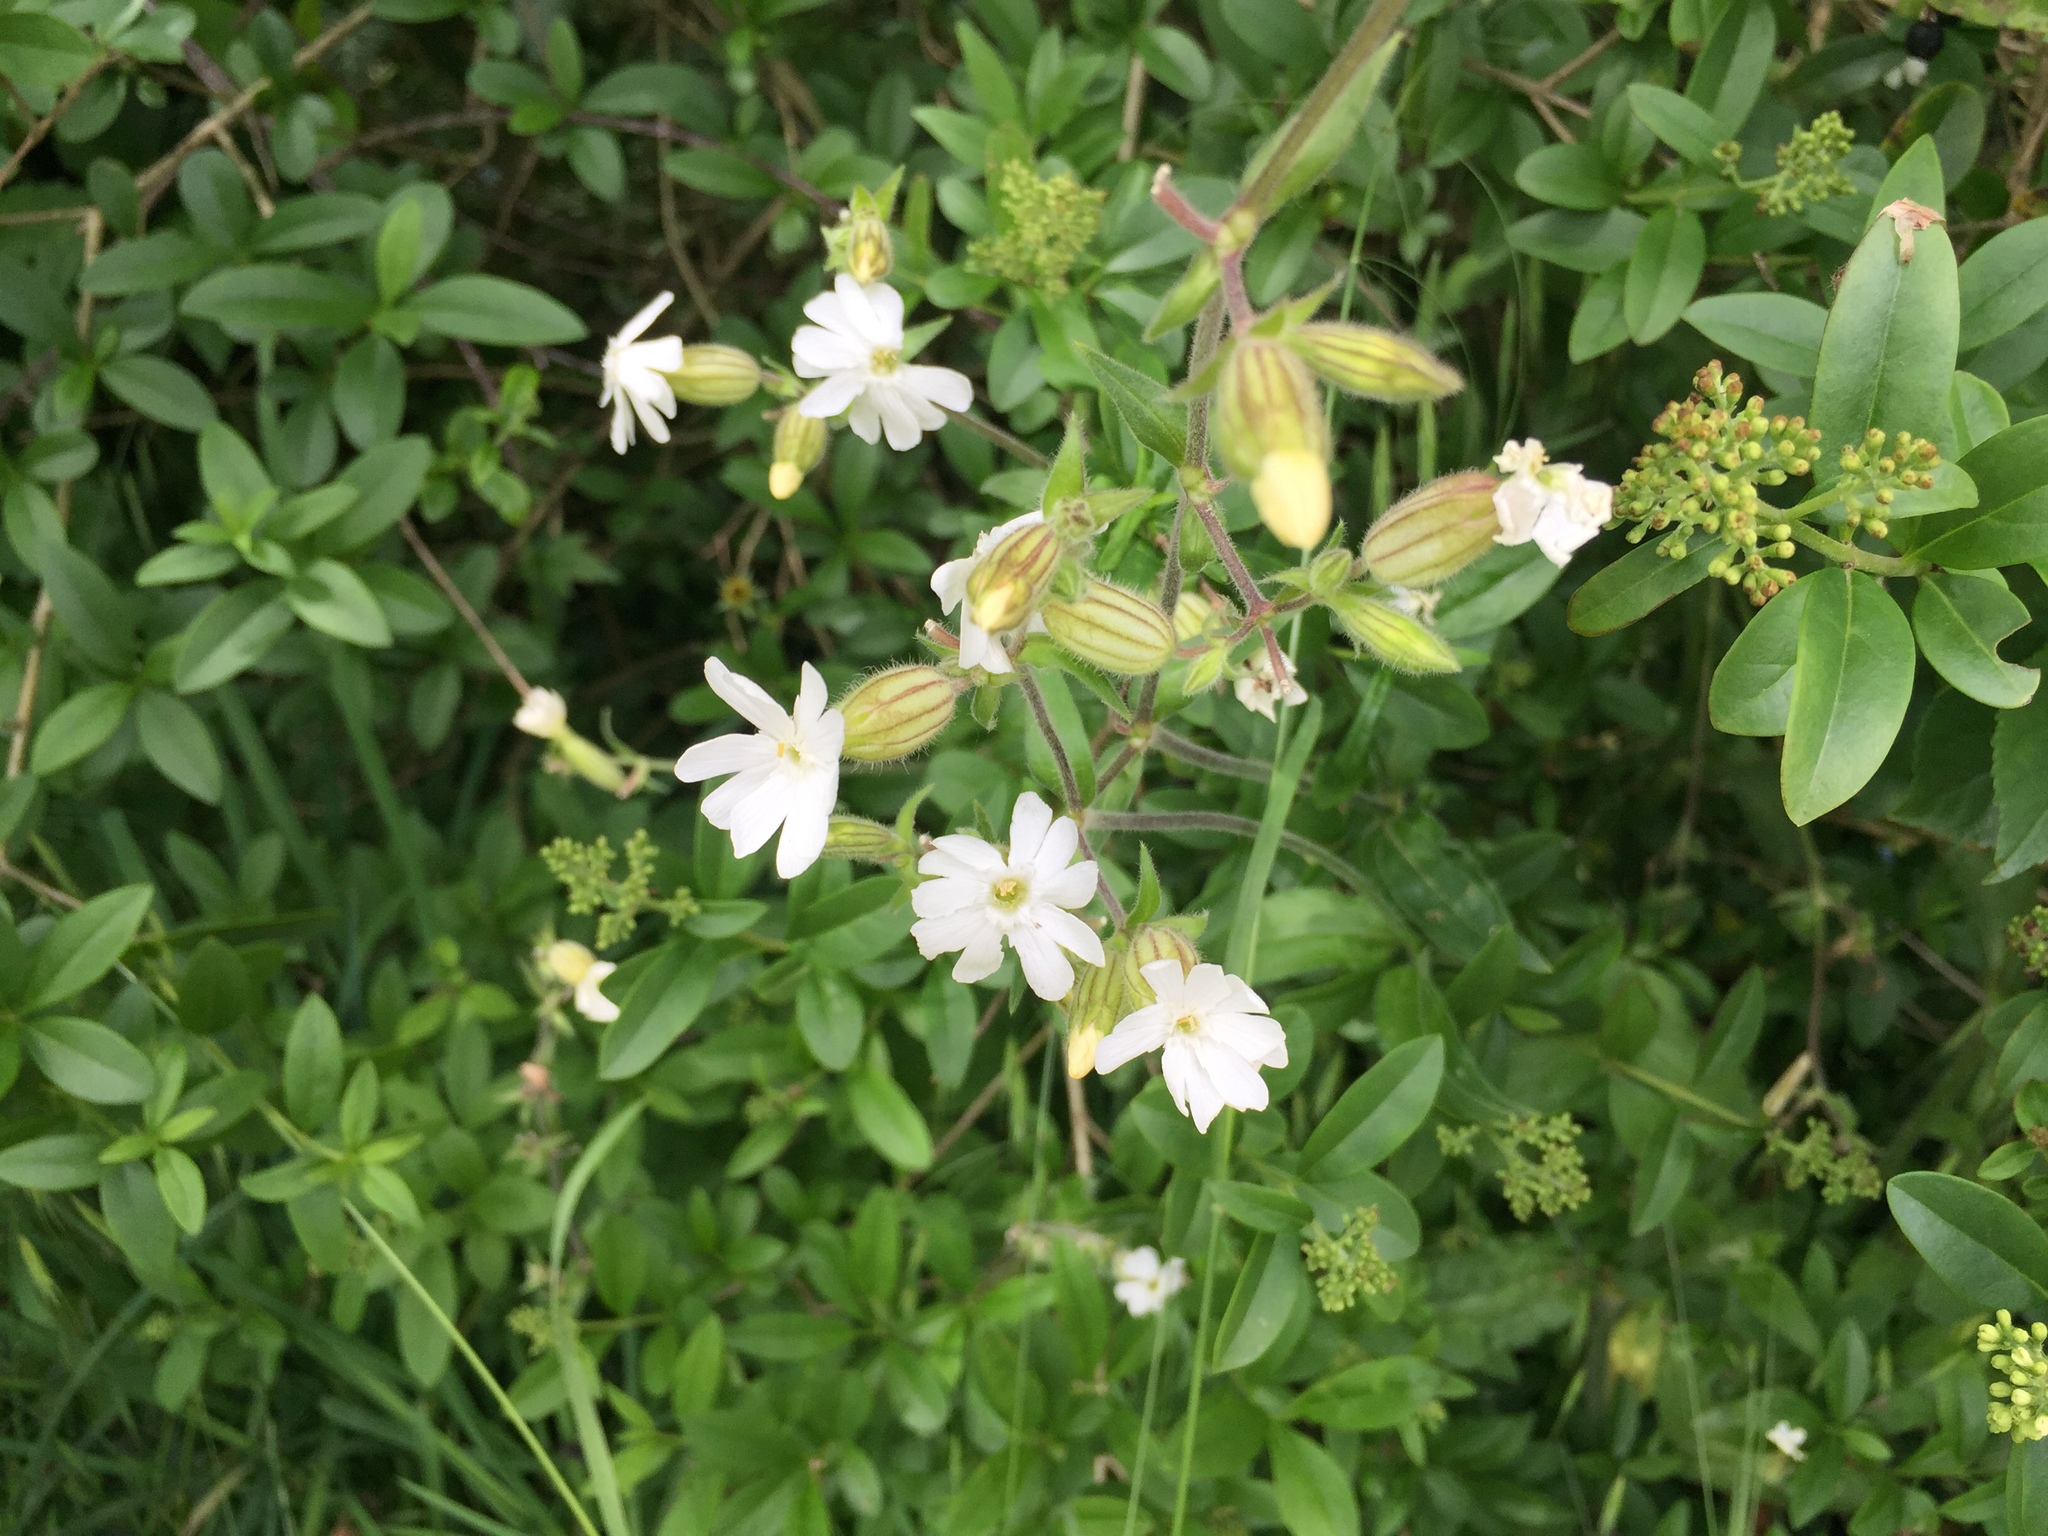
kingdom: Plantae
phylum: Tracheophyta
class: Magnoliopsida
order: Caryophyllales
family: Caryophyllaceae
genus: Silene
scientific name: Silene latifolia
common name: White campion
